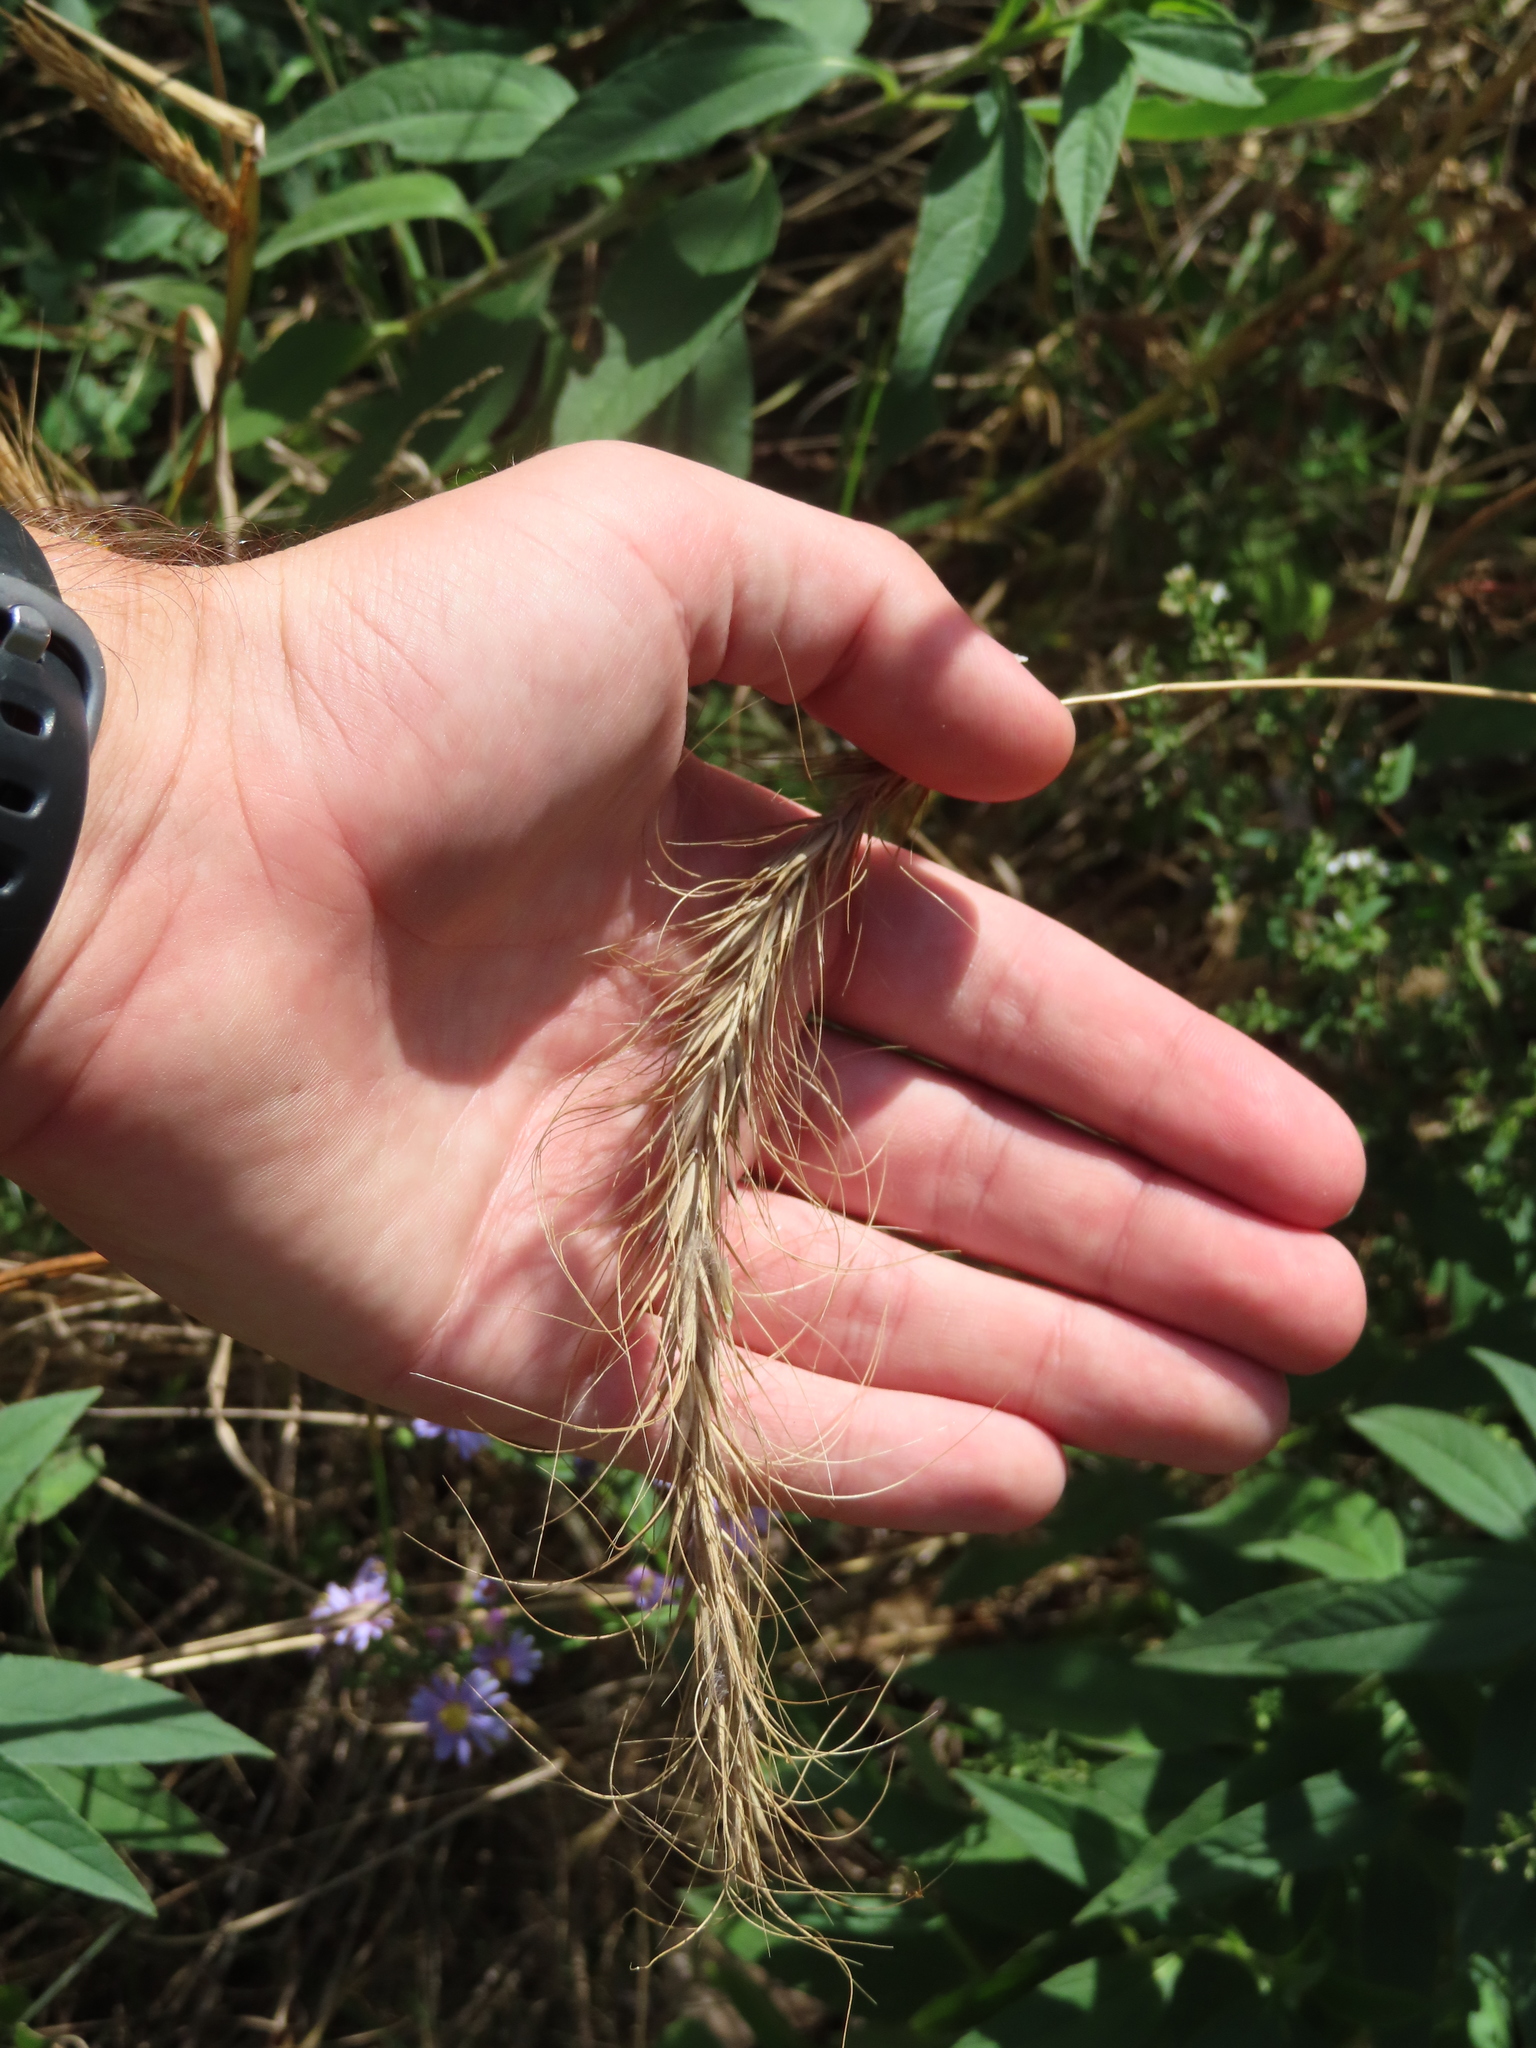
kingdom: Plantae
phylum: Tracheophyta
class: Liliopsida
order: Poales
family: Poaceae
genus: Elymus
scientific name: Elymus canadensis
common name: Canada wild rye
